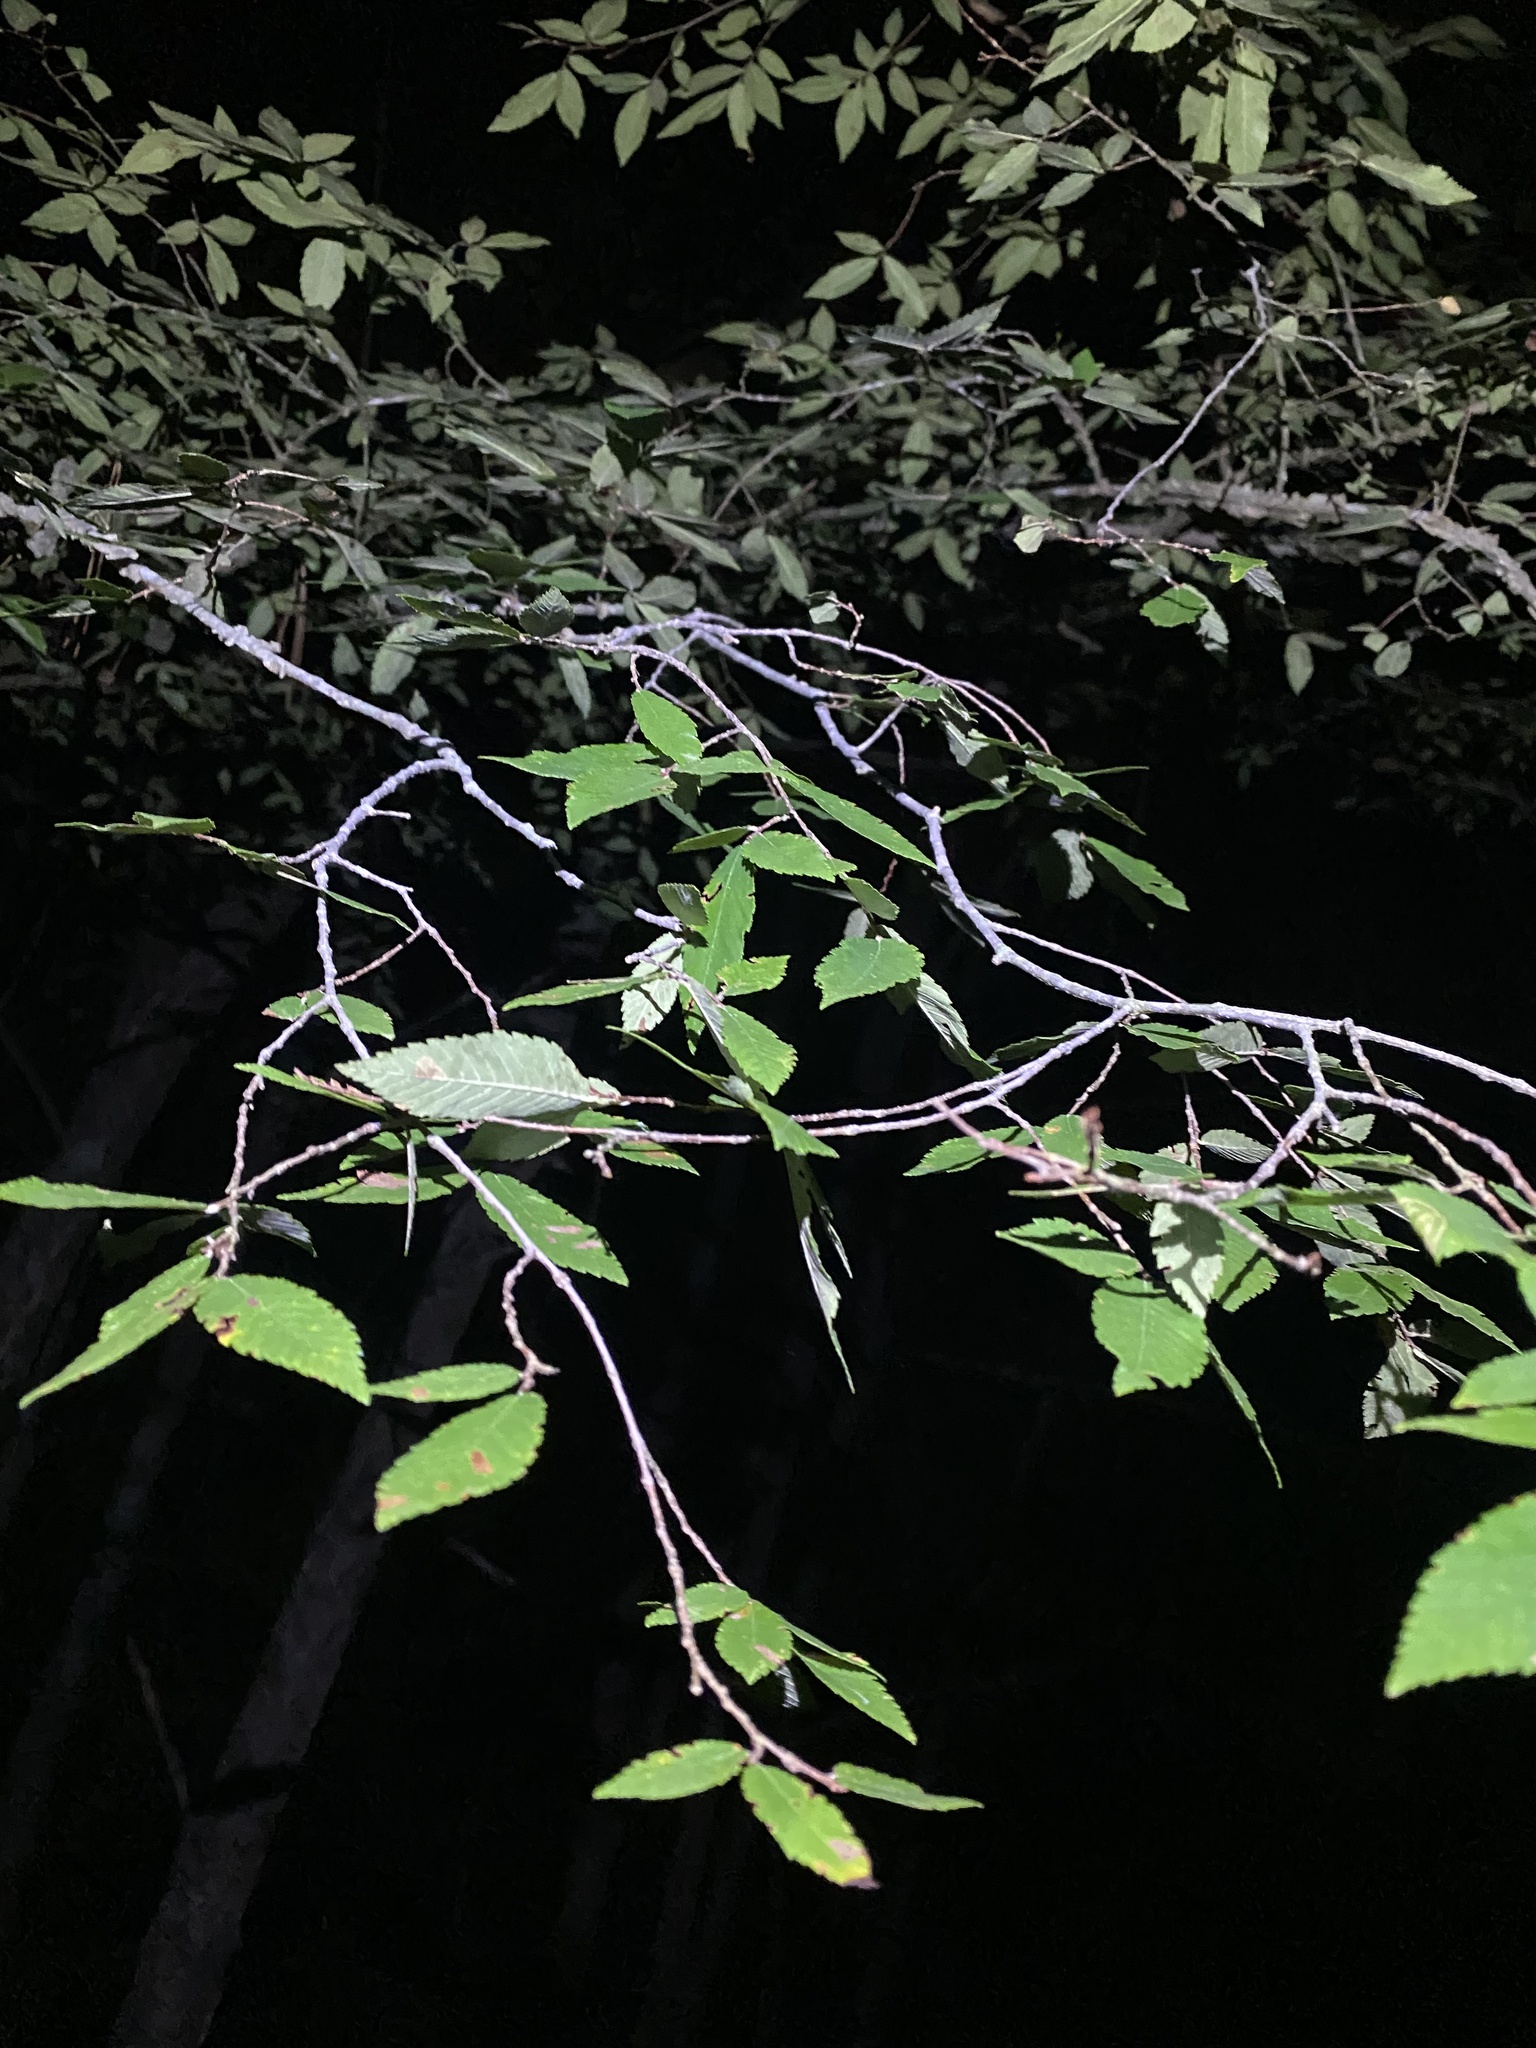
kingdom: Plantae
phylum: Tracheophyta
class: Magnoliopsida
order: Rosales
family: Ulmaceae
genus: Ulmus
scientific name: Ulmus alata
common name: Winged elm
